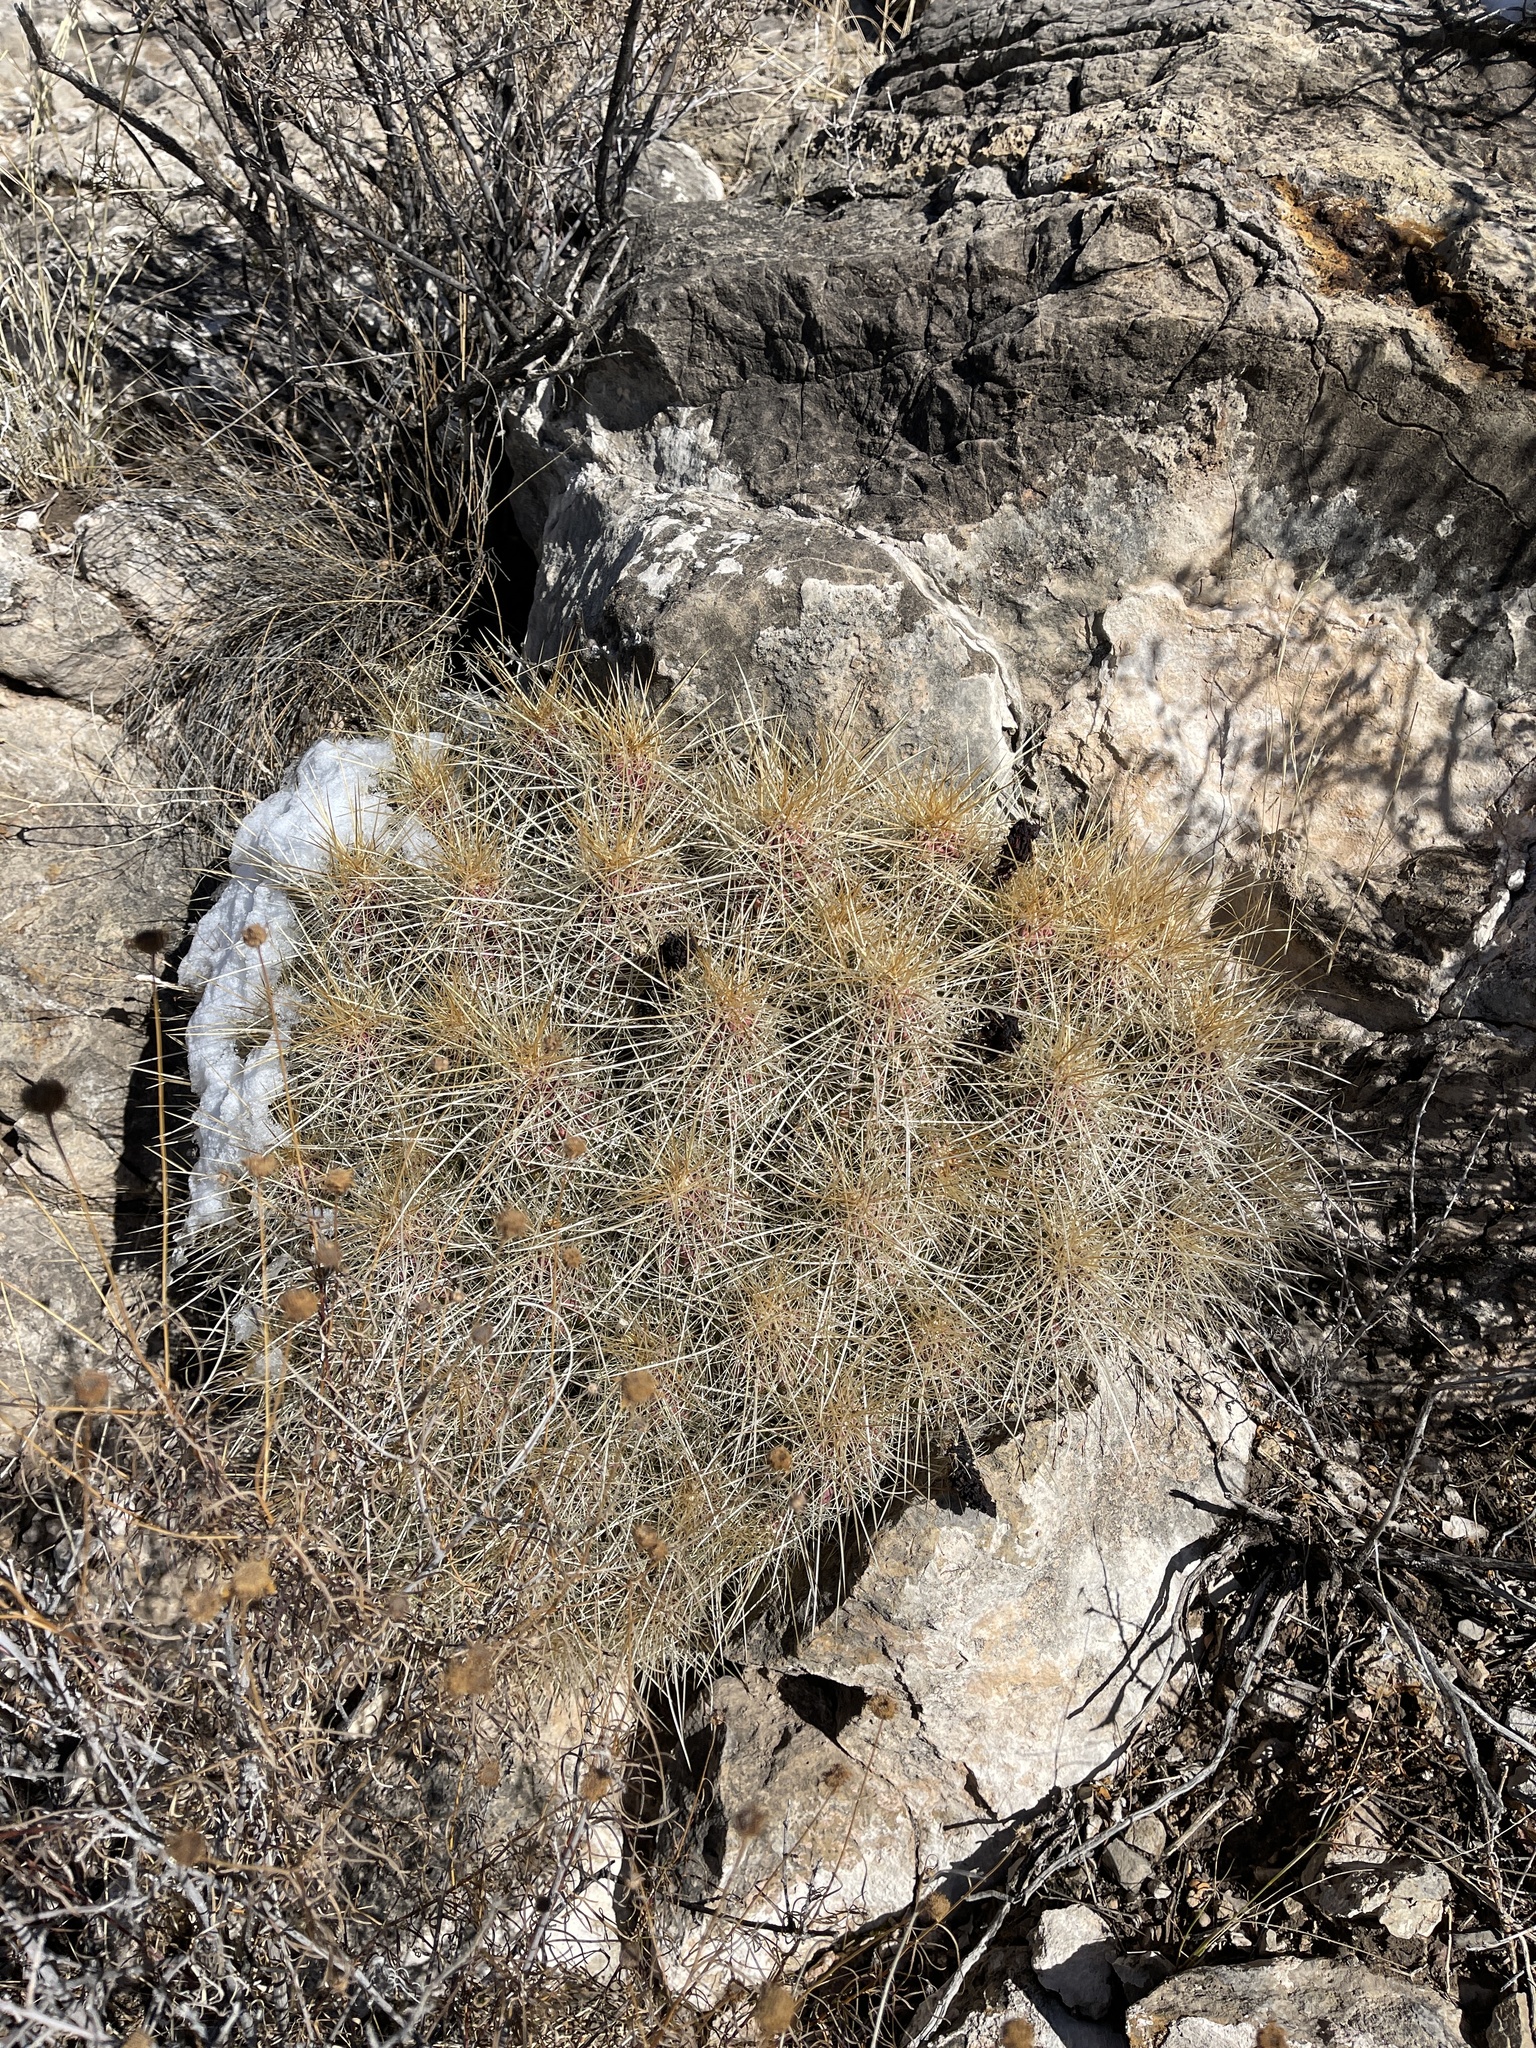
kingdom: Plantae
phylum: Tracheophyta
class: Magnoliopsida
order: Caryophyllales
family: Cactaceae
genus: Echinocereus
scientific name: Echinocereus stramineus
